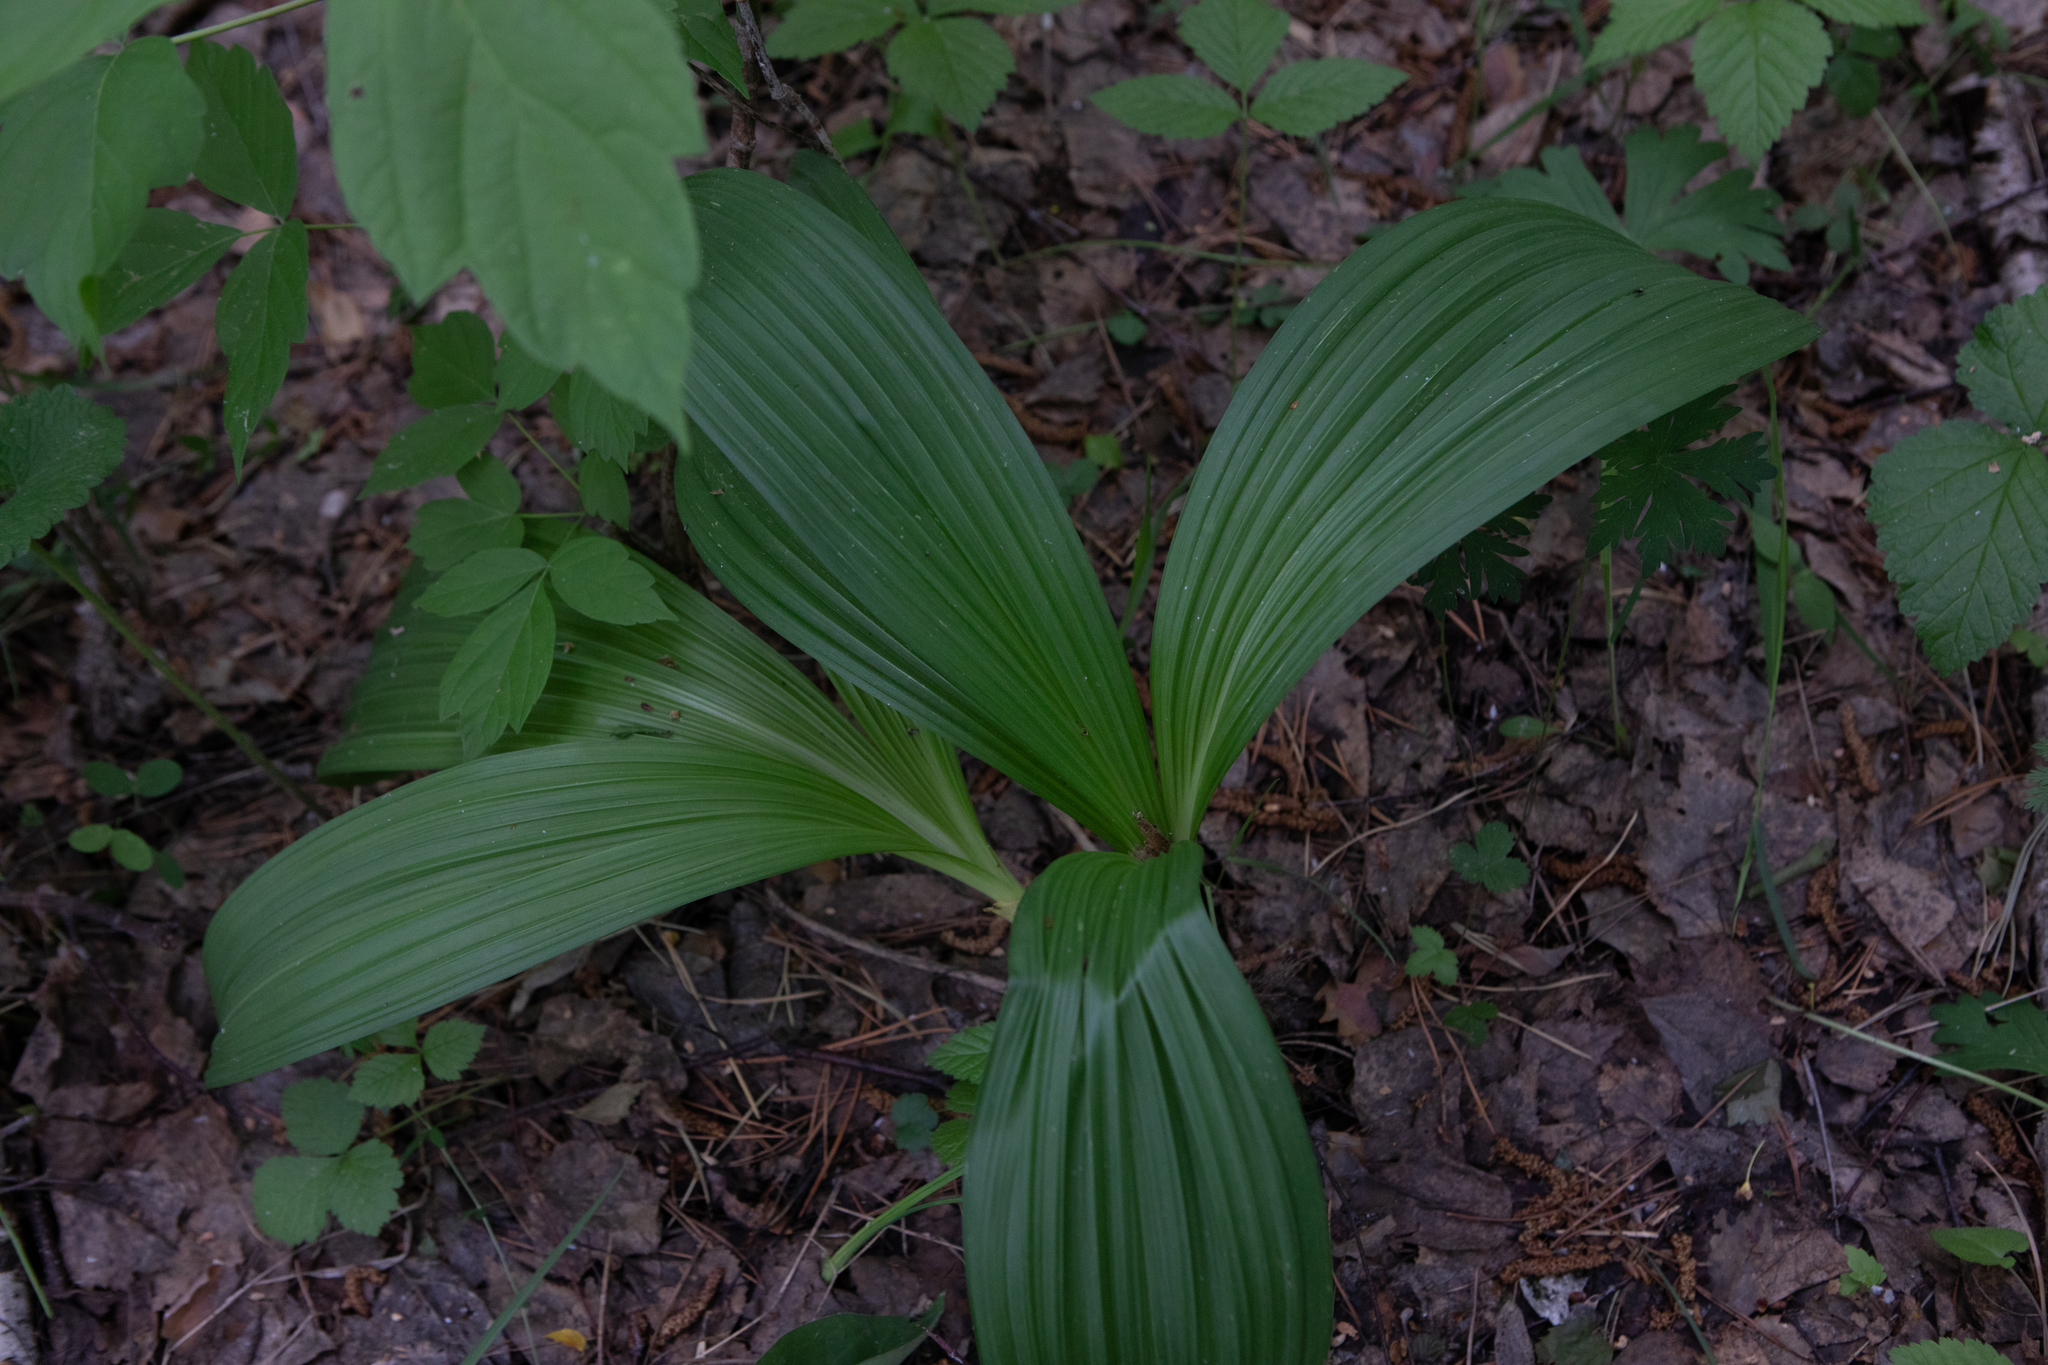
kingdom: Plantae
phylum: Tracheophyta
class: Liliopsida
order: Liliales
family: Melanthiaceae
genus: Veratrum
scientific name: Veratrum nigrum
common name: Black veratrum
